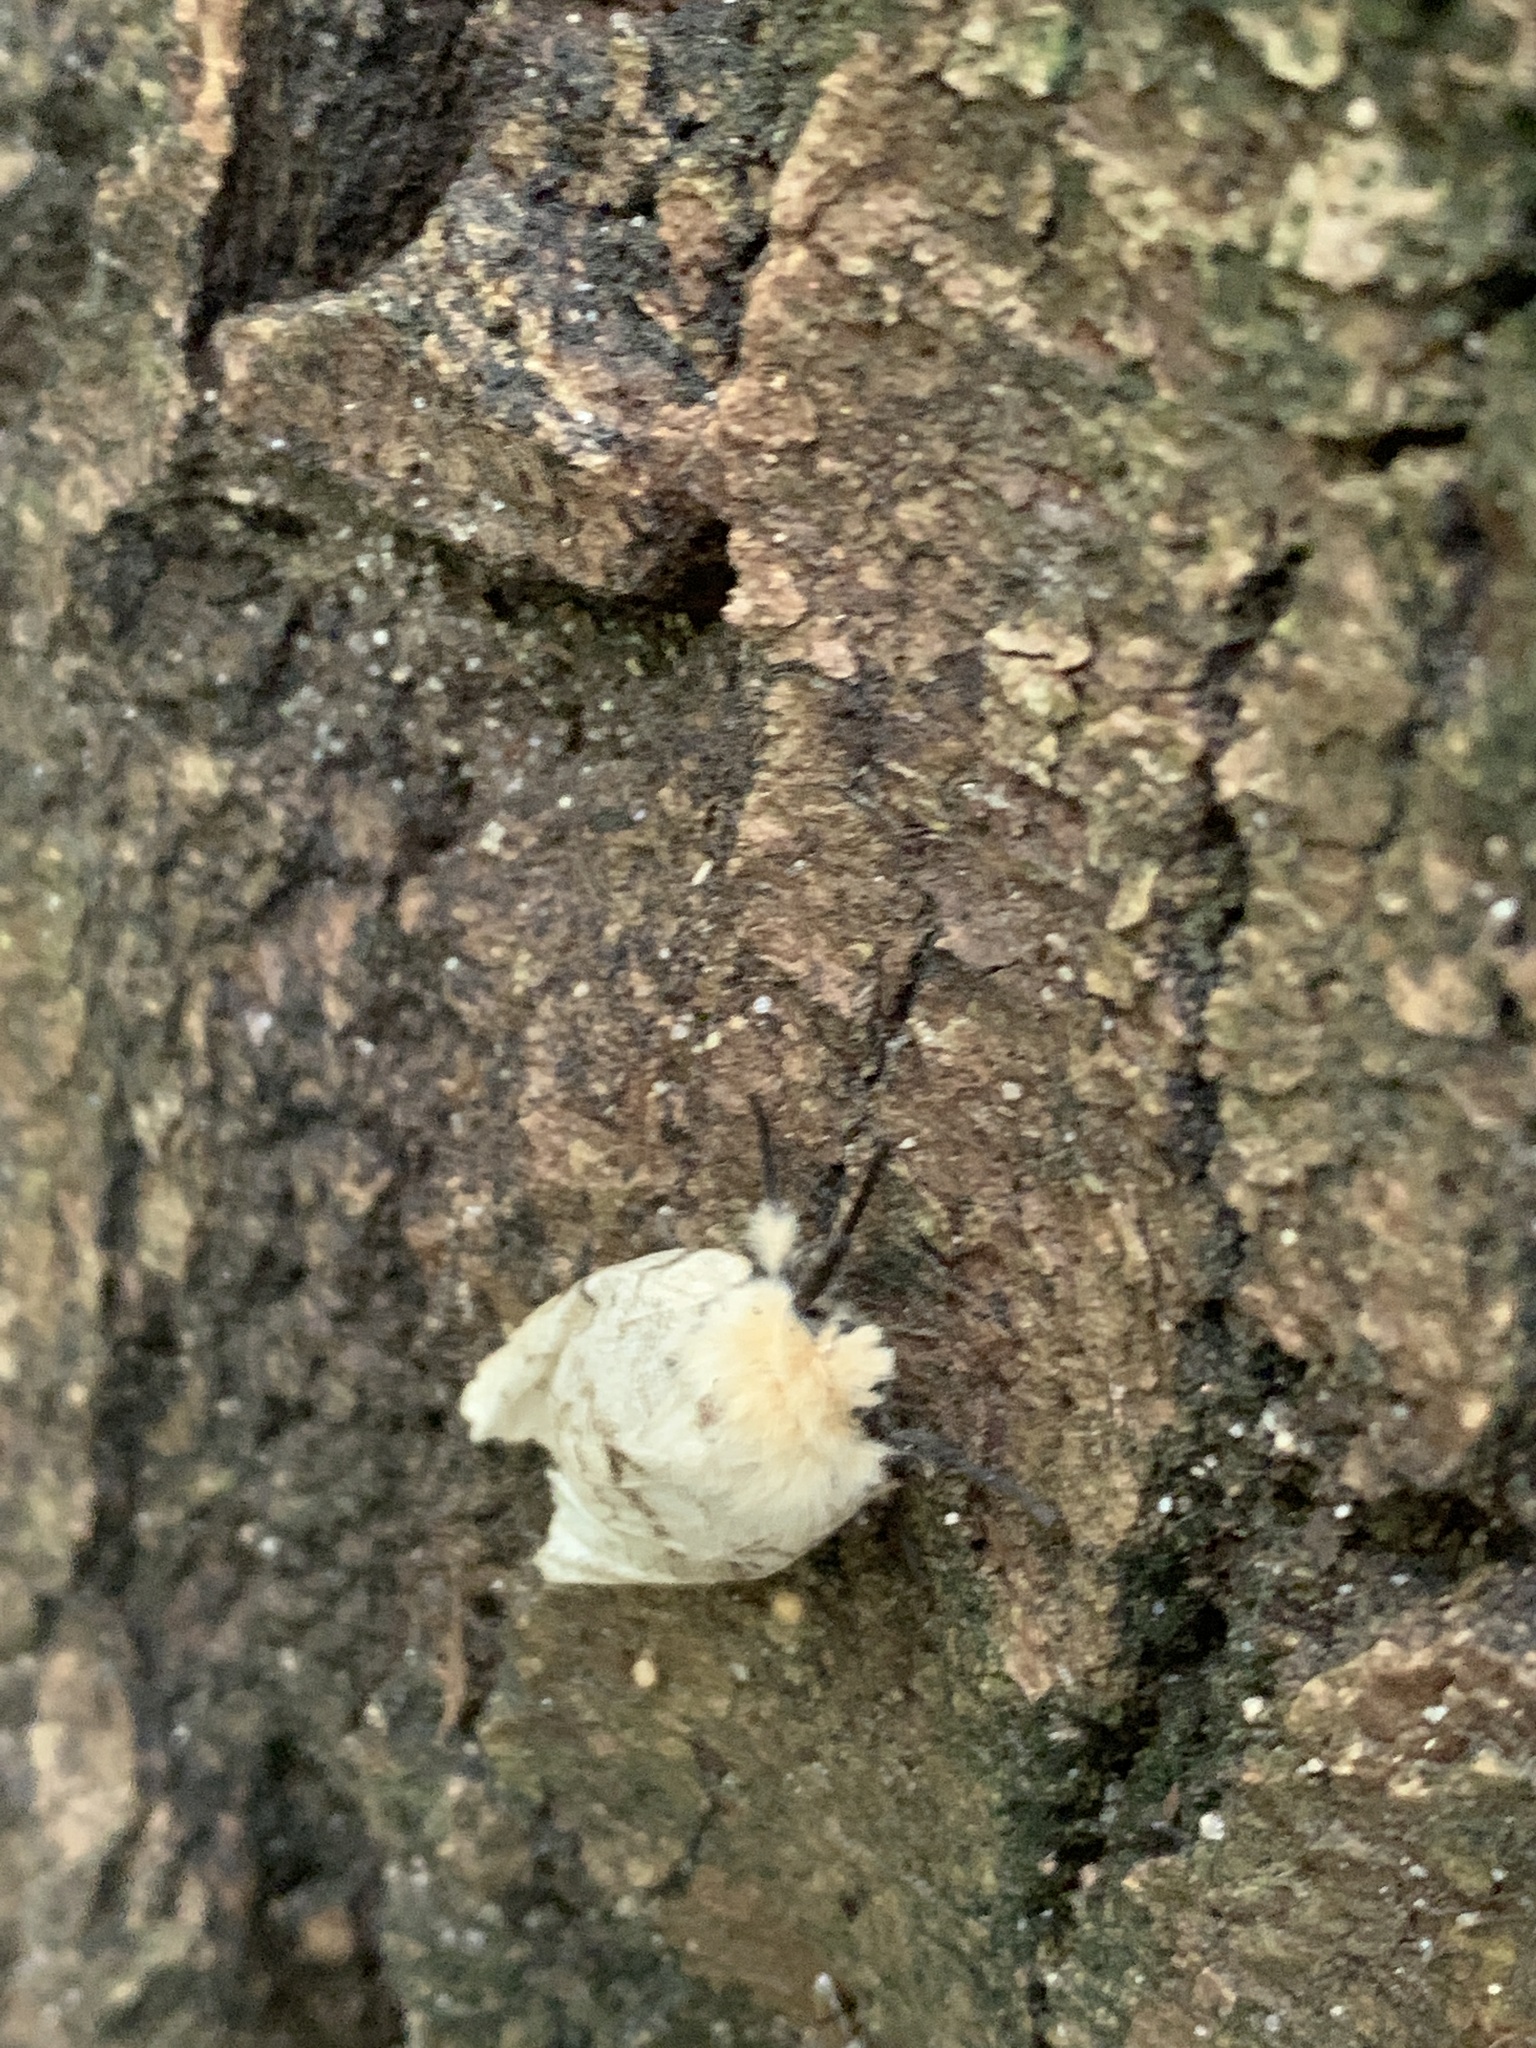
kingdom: Animalia
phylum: Arthropoda
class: Insecta
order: Lepidoptera
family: Erebidae
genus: Lymantria
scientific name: Lymantria dispar
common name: Gypsy moth
